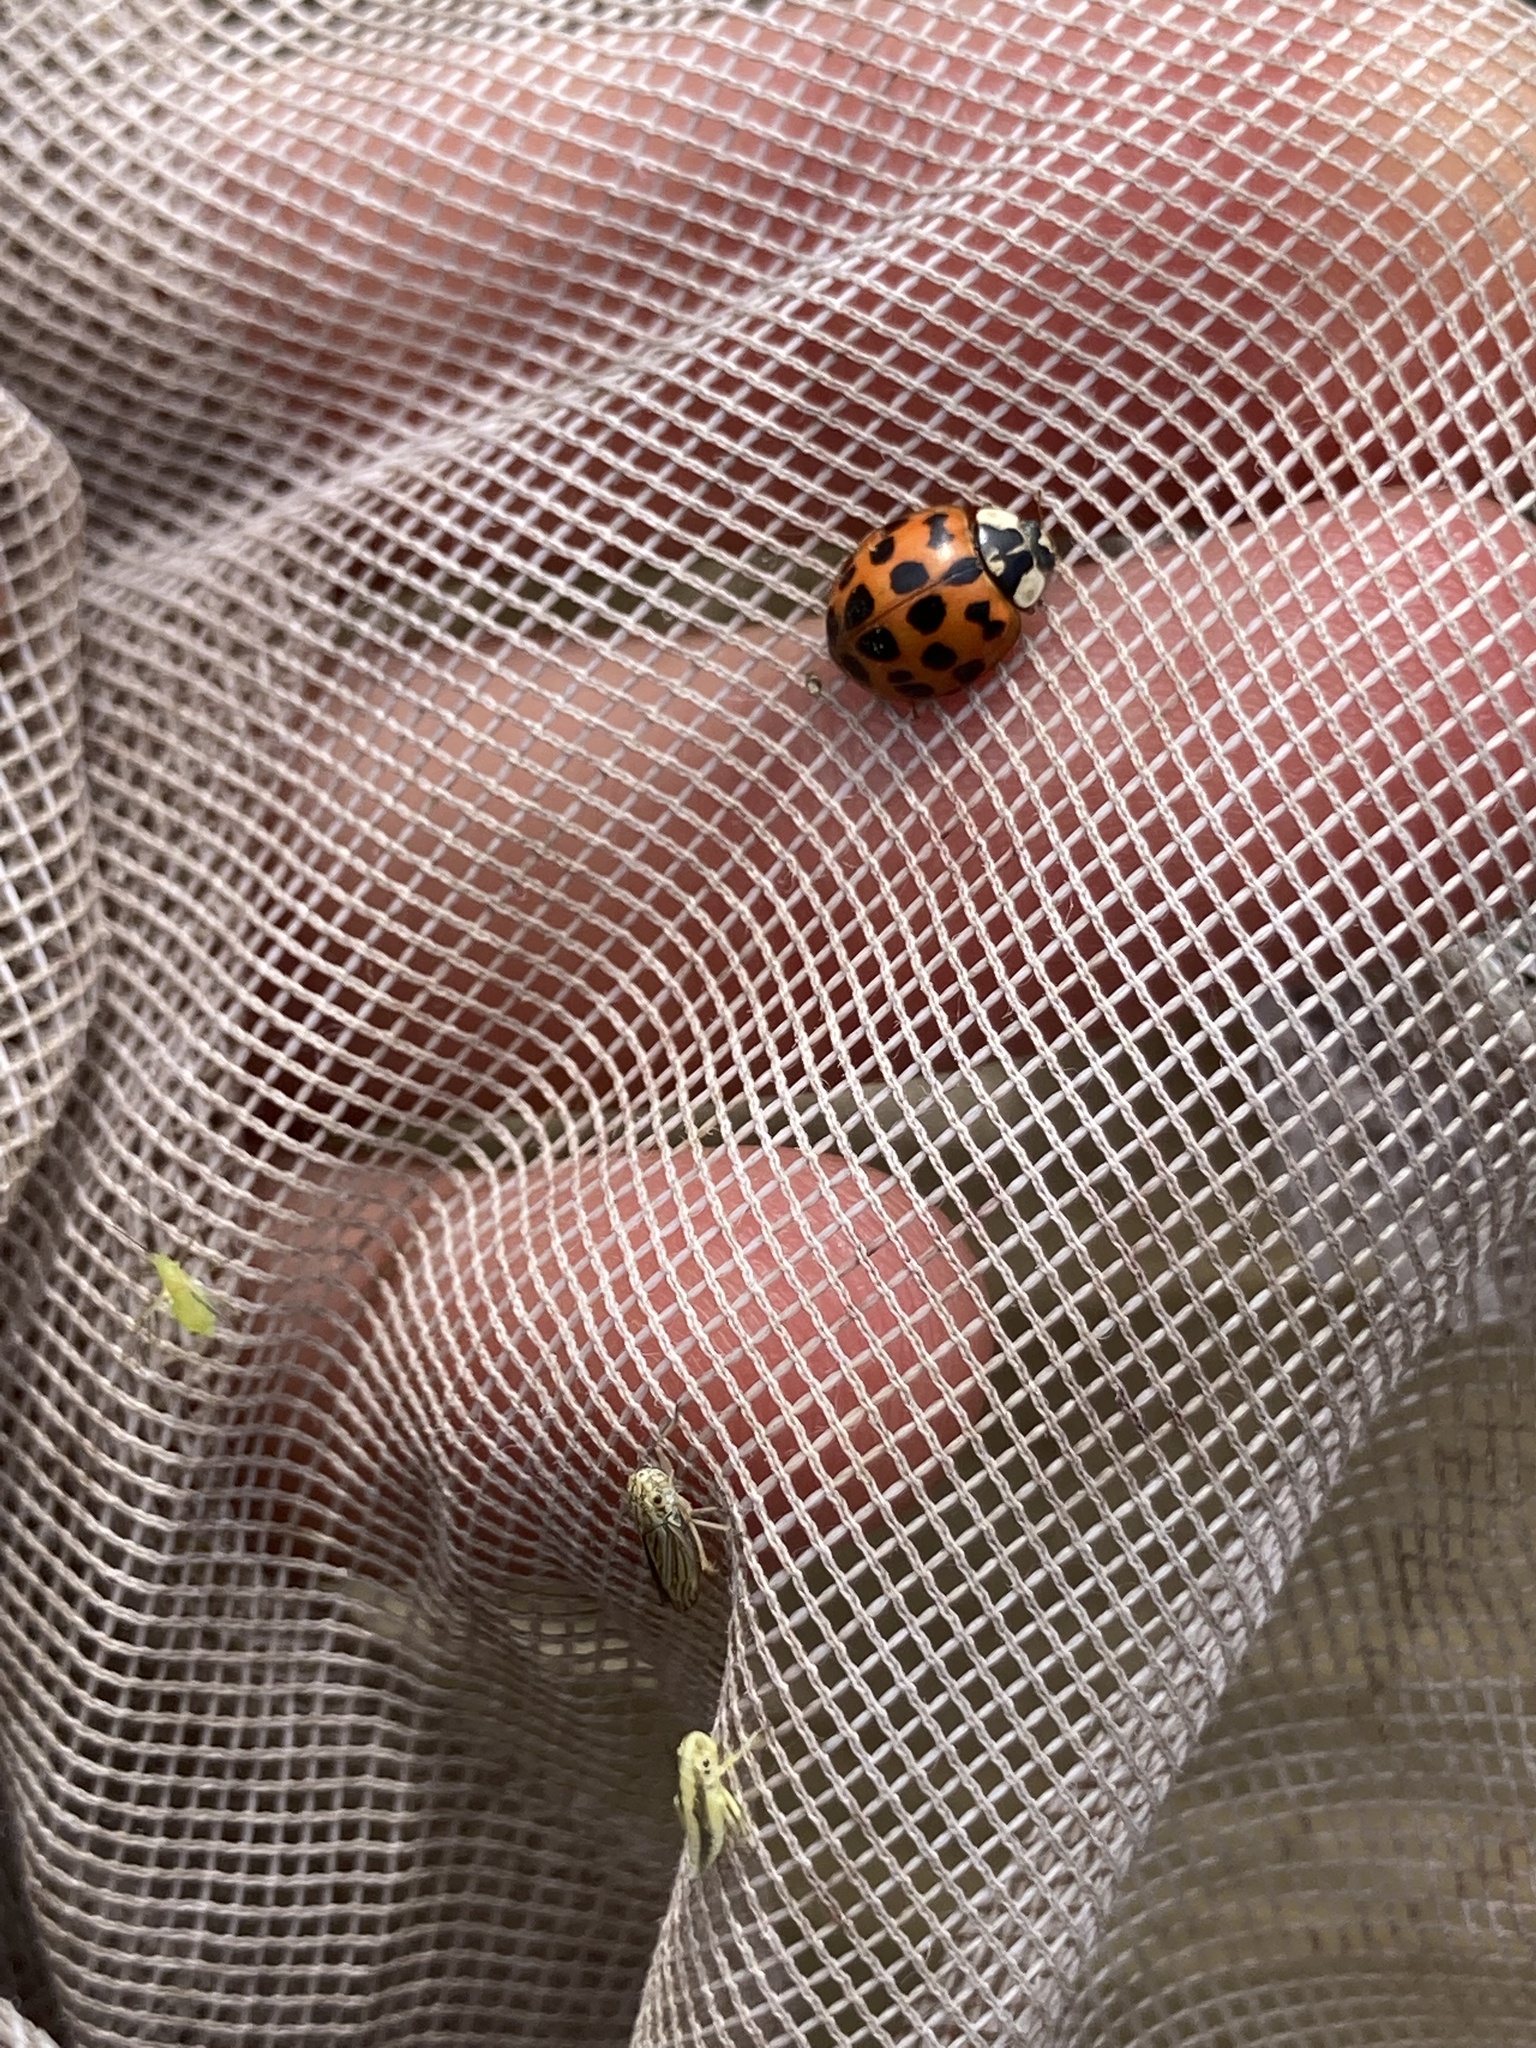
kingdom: Animalia
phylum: Arthropoda
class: Insecta
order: Coleoptera
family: Coccinellidae
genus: Harmonia
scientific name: Harmonia axyridis
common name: Harlequin ladybird
